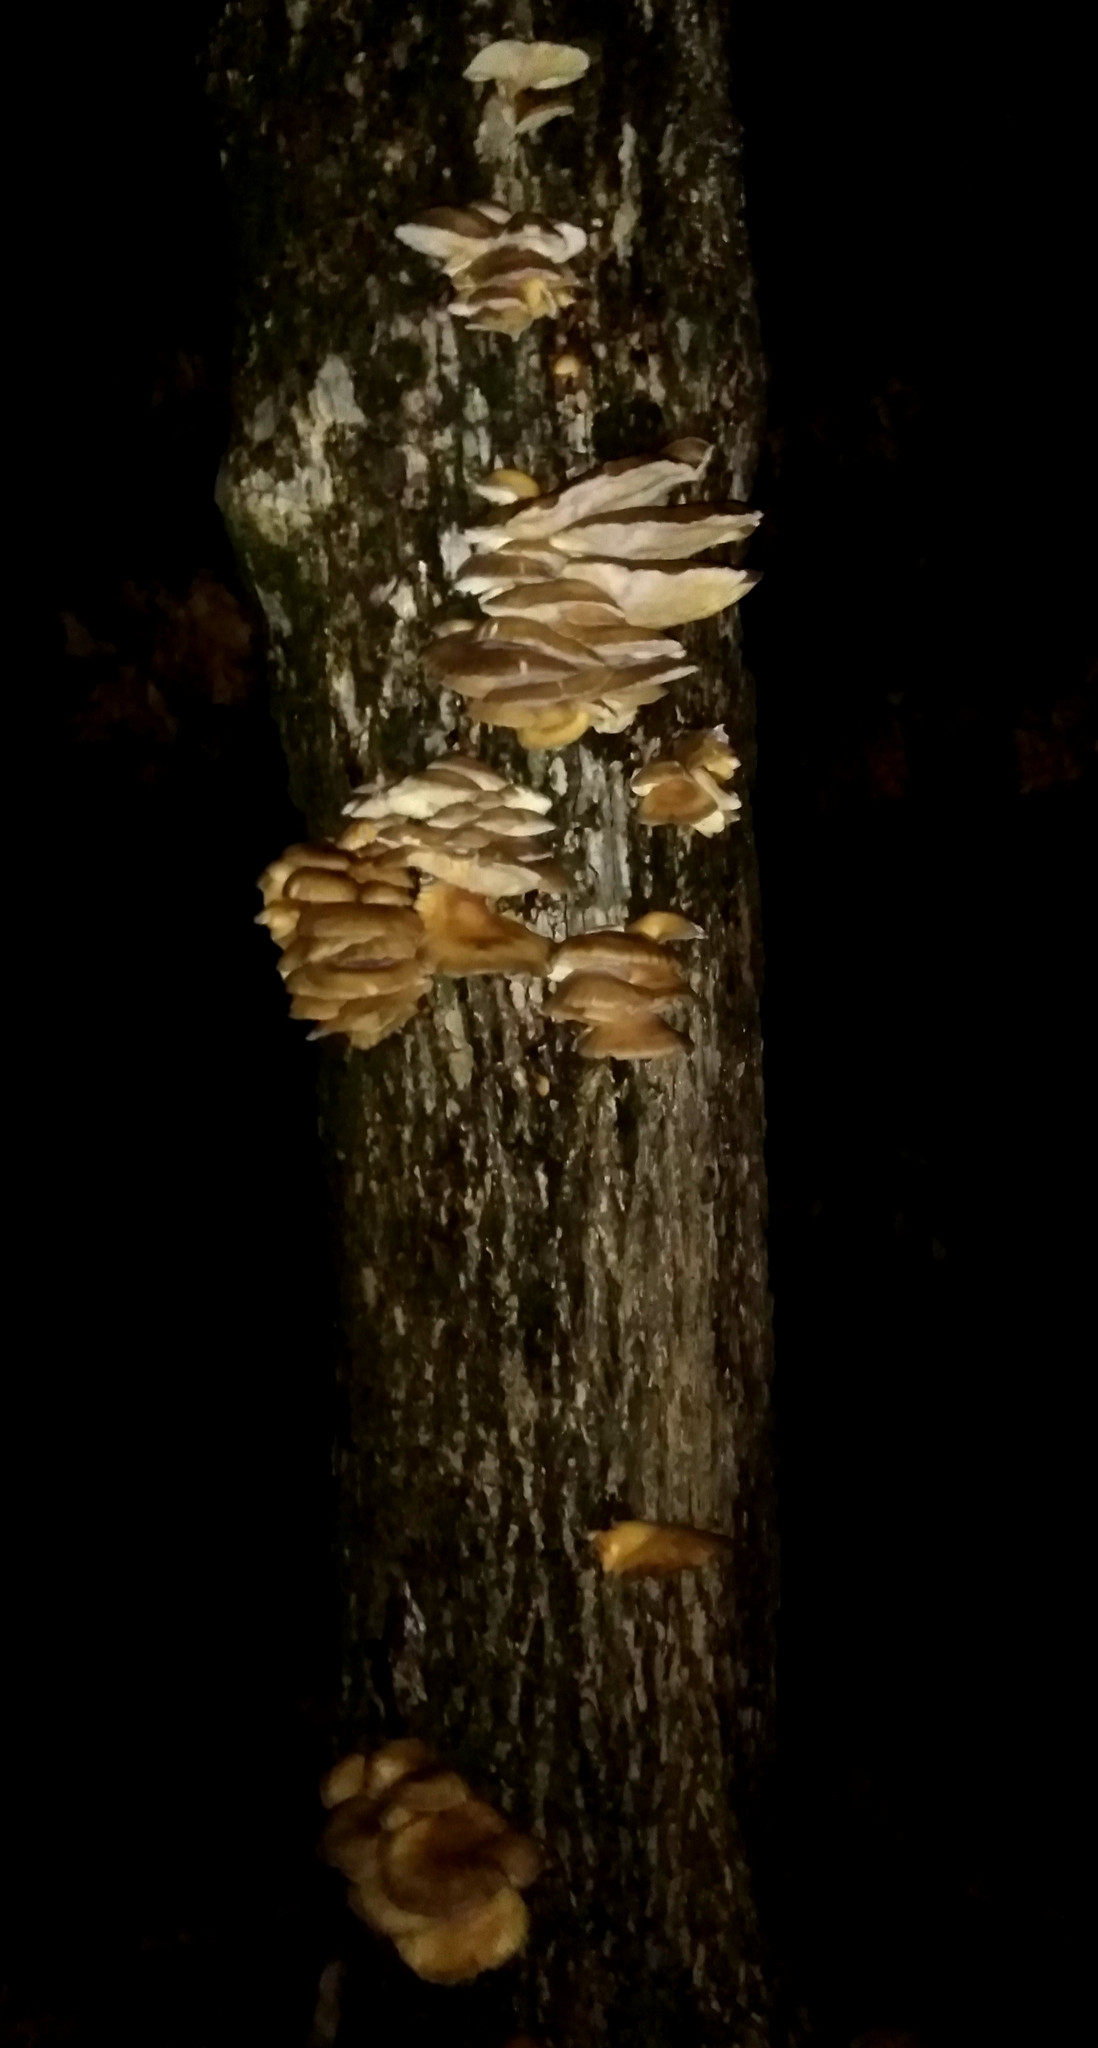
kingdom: Fungi
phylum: Basidiomycota
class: Agaricomycetes
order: Agaricales
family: Pleurotaceae
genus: Pleurotus
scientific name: Pleurotus ostreatus
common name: Oyster mushroom
